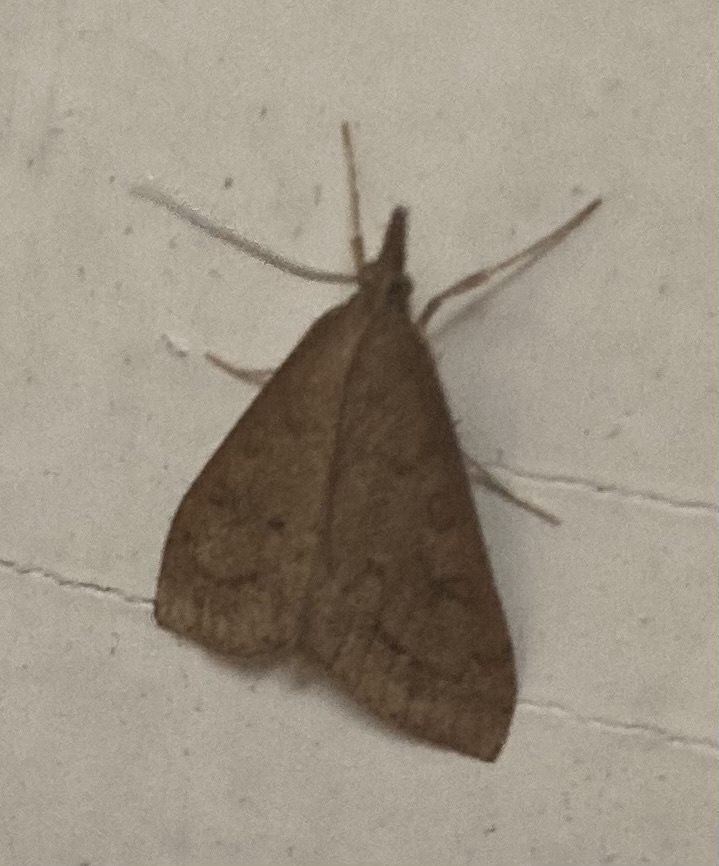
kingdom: Animalia
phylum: Arthropoda
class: Insecta
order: Lepidoptera
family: Crambidae
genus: Udea
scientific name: Udea rubigalis
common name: Celery leaftier moth
